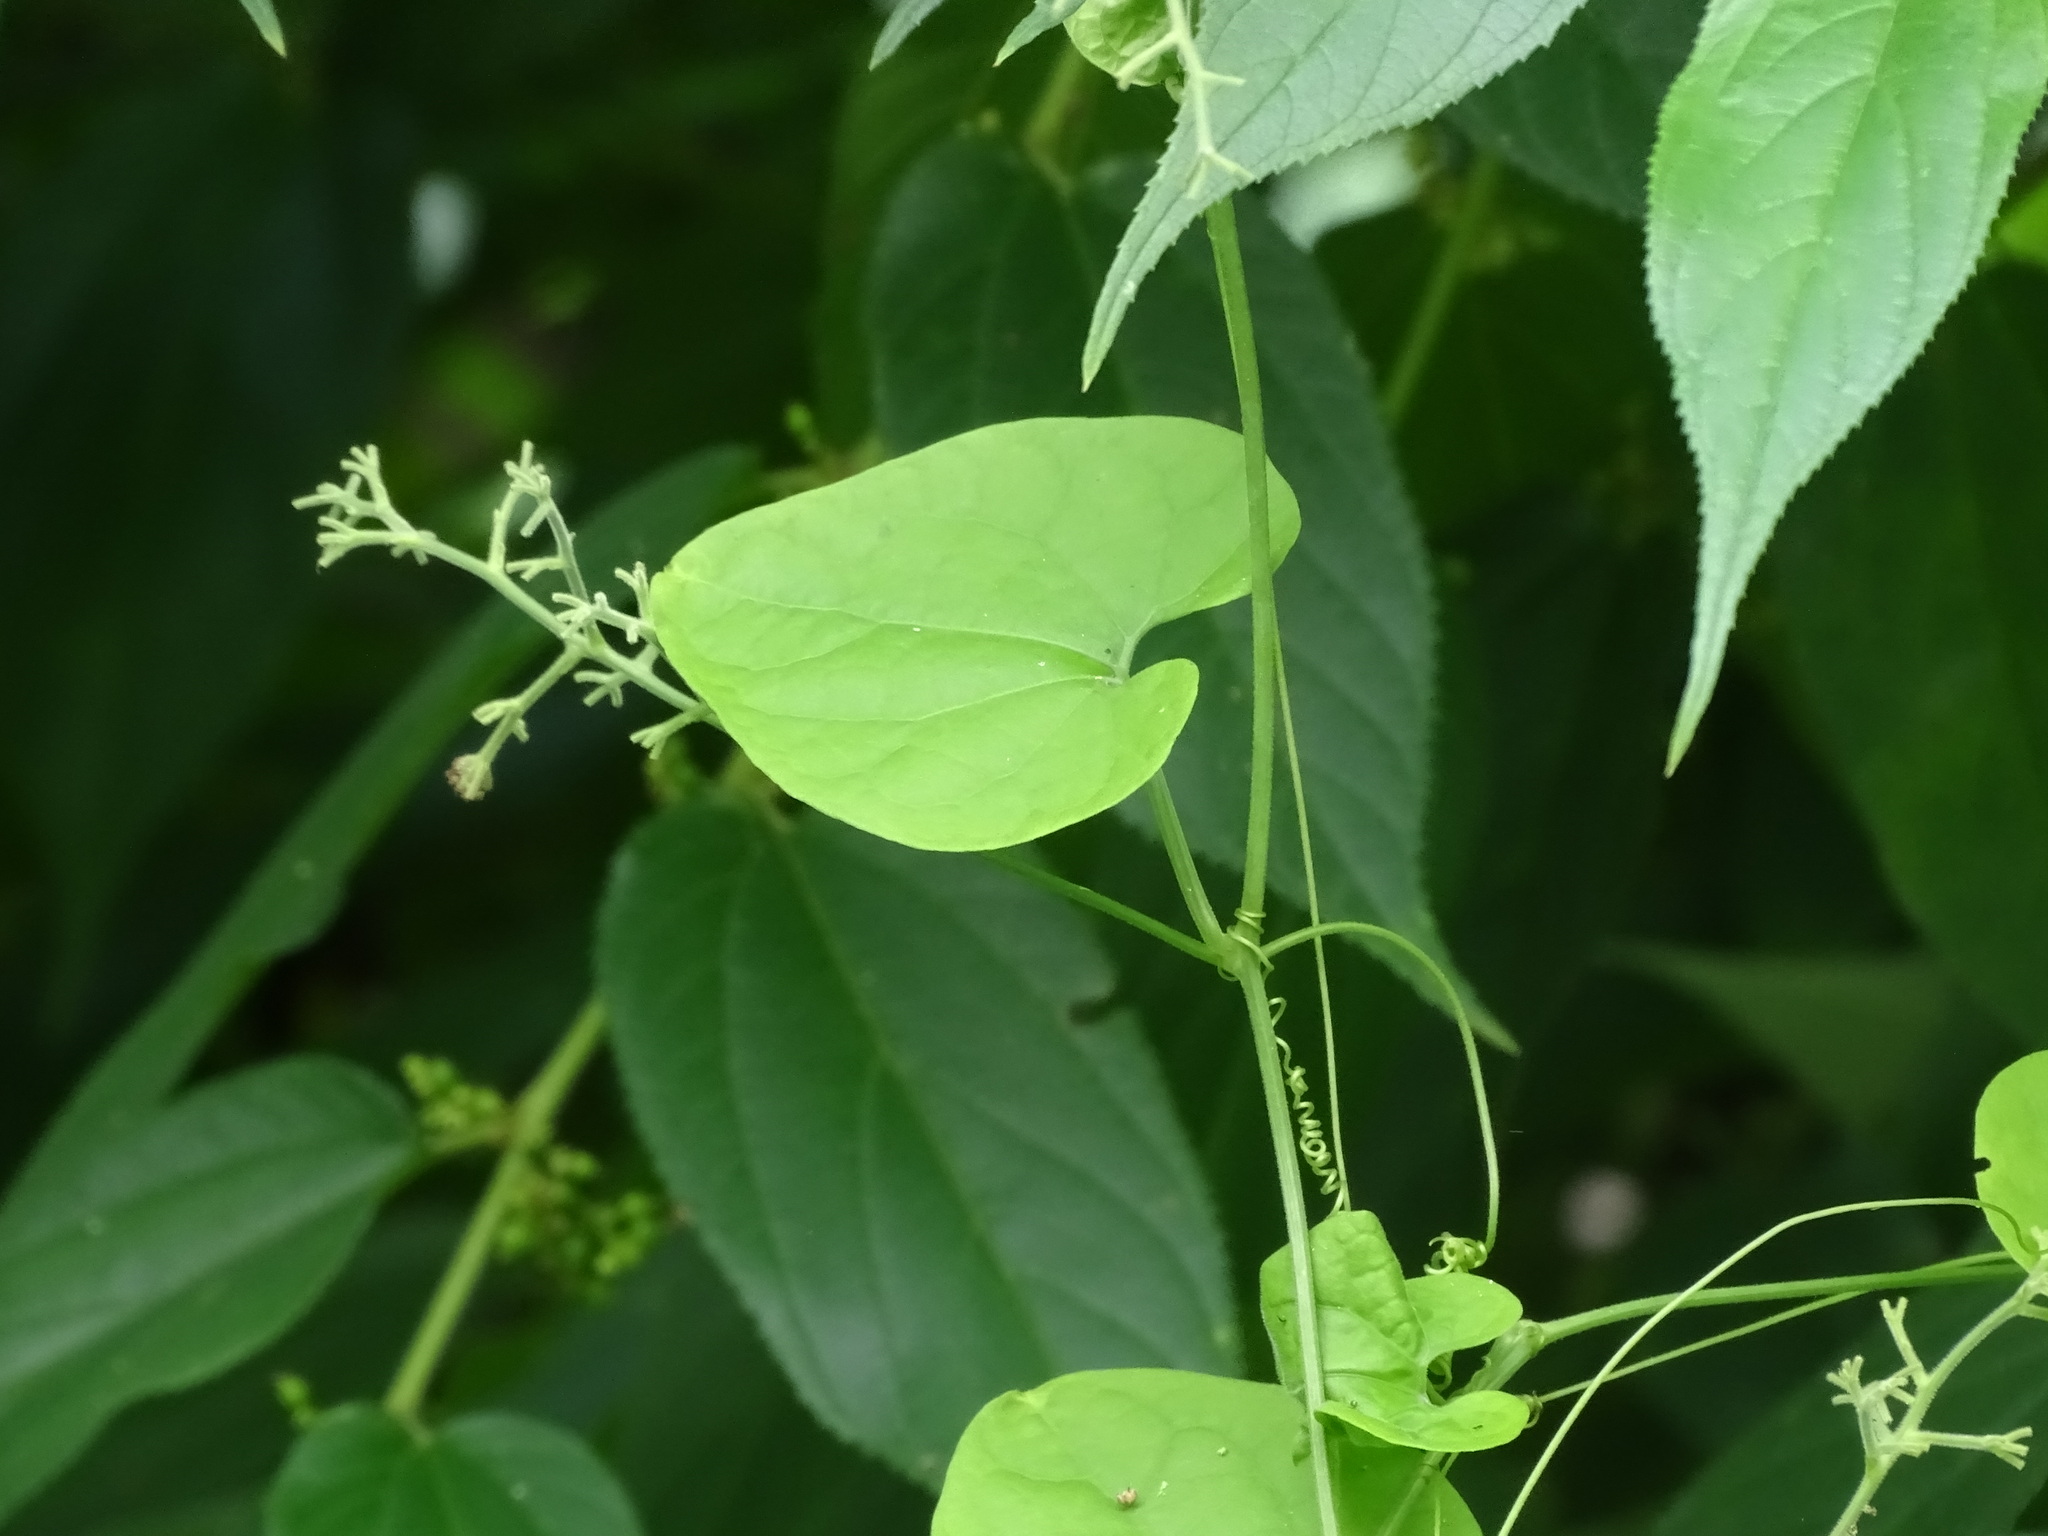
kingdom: Plantae
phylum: Tracheophyta
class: Magnoliopsida
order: Cucurbitales
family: Cucurbitaceae
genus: Sicydium
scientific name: Sicydium tamnifolium
